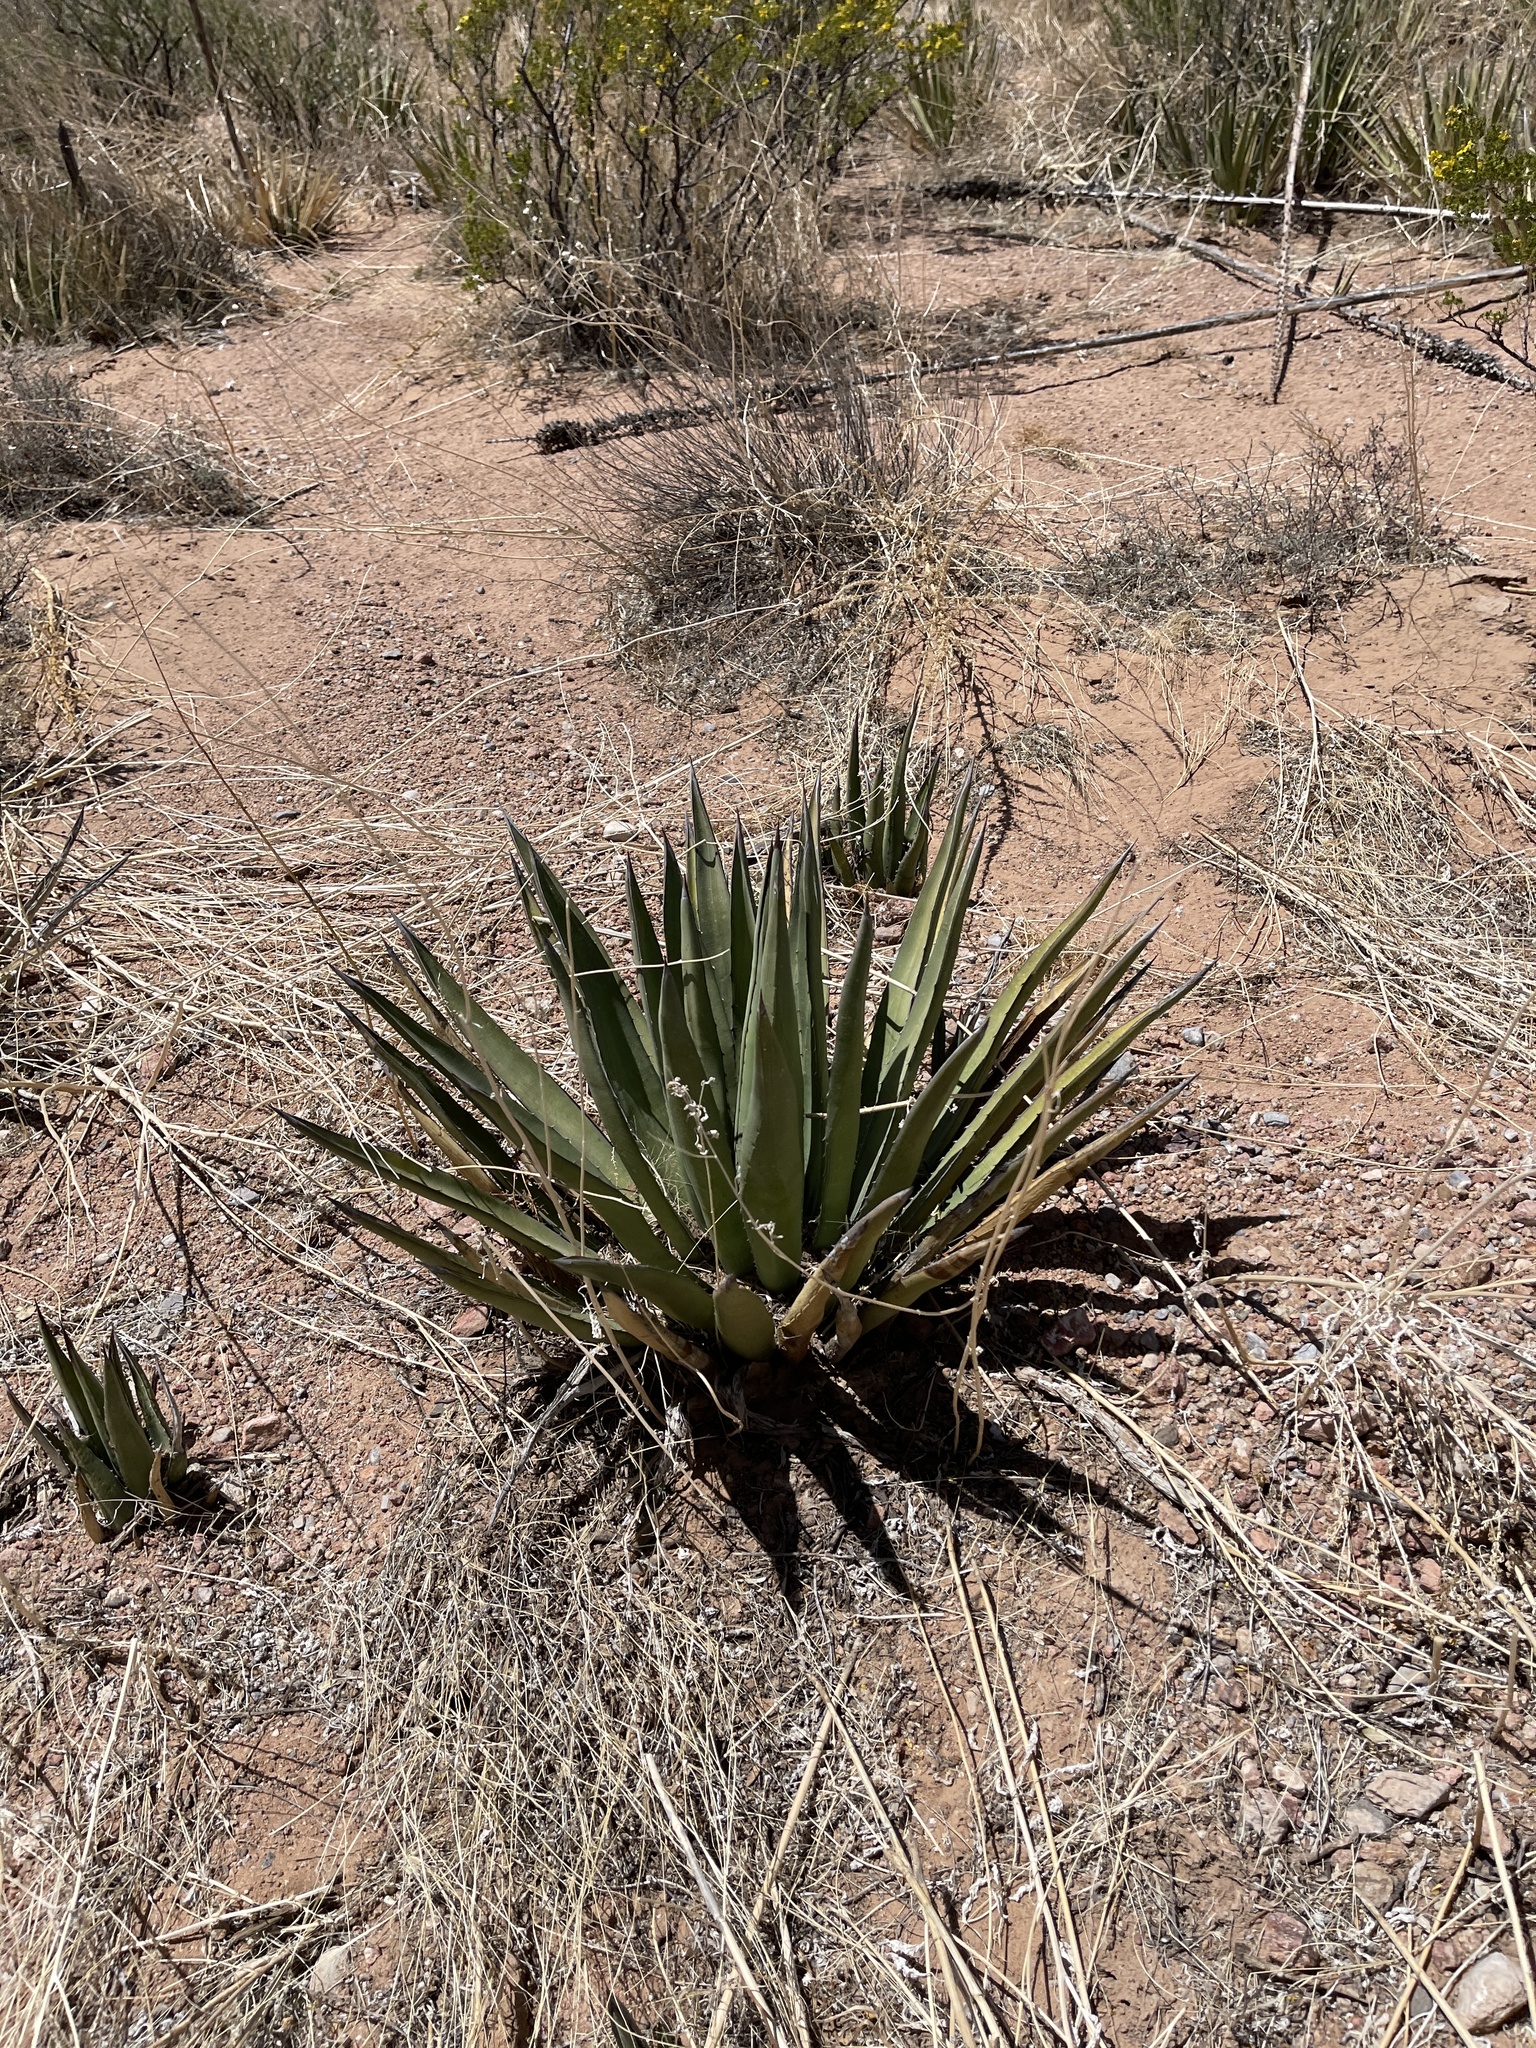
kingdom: Plantae
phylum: Tracheophyta
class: Liliopsida
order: Asparagales
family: Asparagaceae
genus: Agave
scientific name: Agave lechuguilla
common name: Lecheguilla agave
